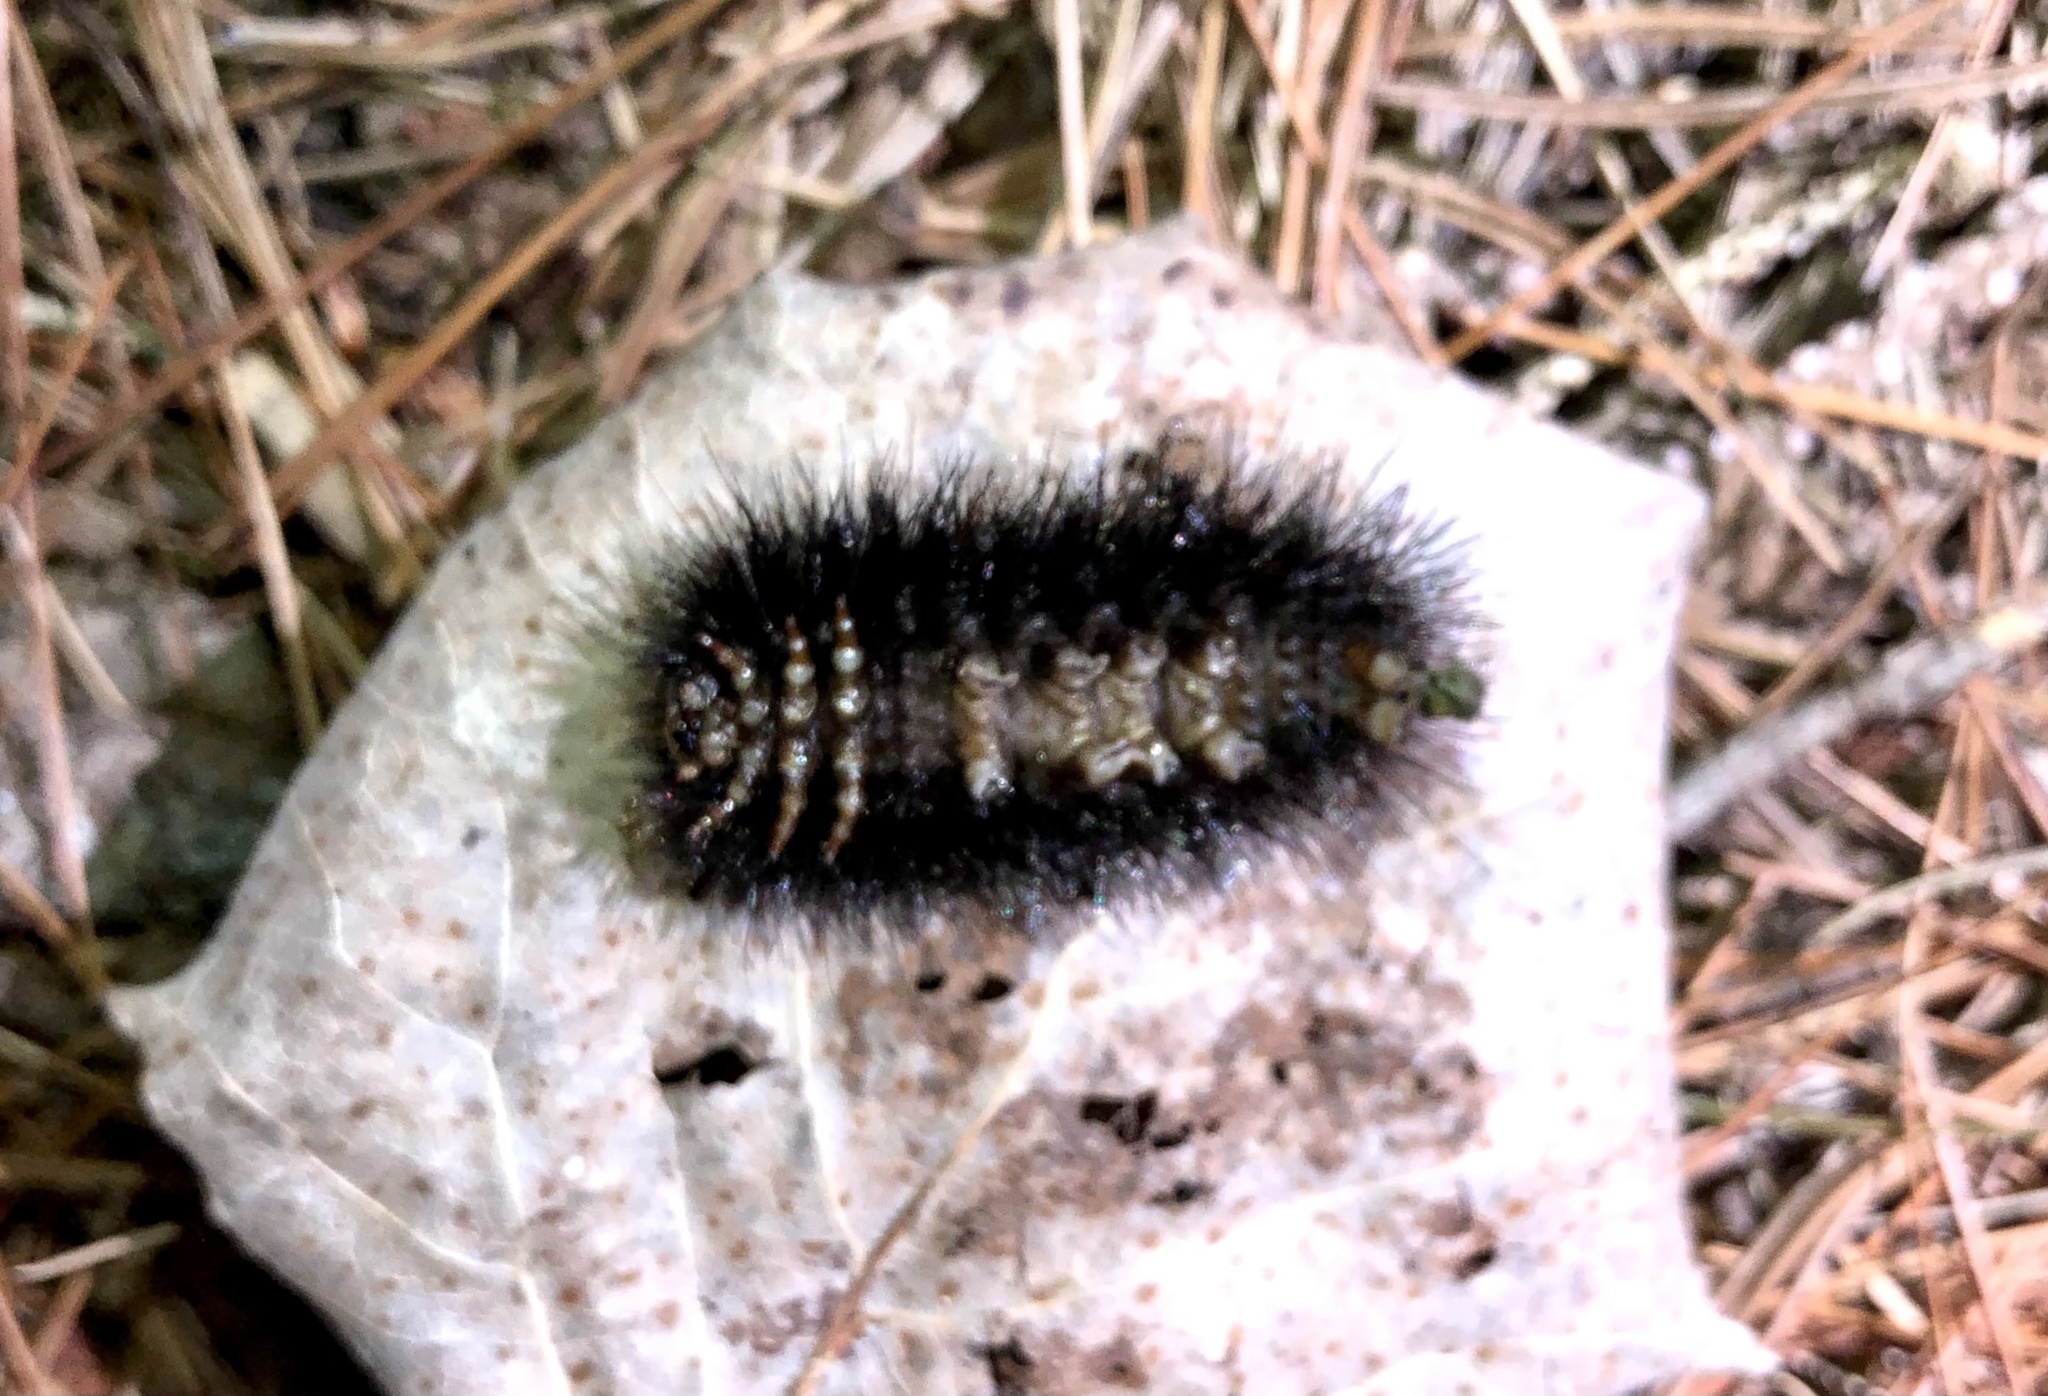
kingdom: Animalia
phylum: Arthropoda
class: Insecta
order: Lepidoptera
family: Erebidae
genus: Hypercompe
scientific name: Hypercompe scribonia
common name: Giant leopard moth
